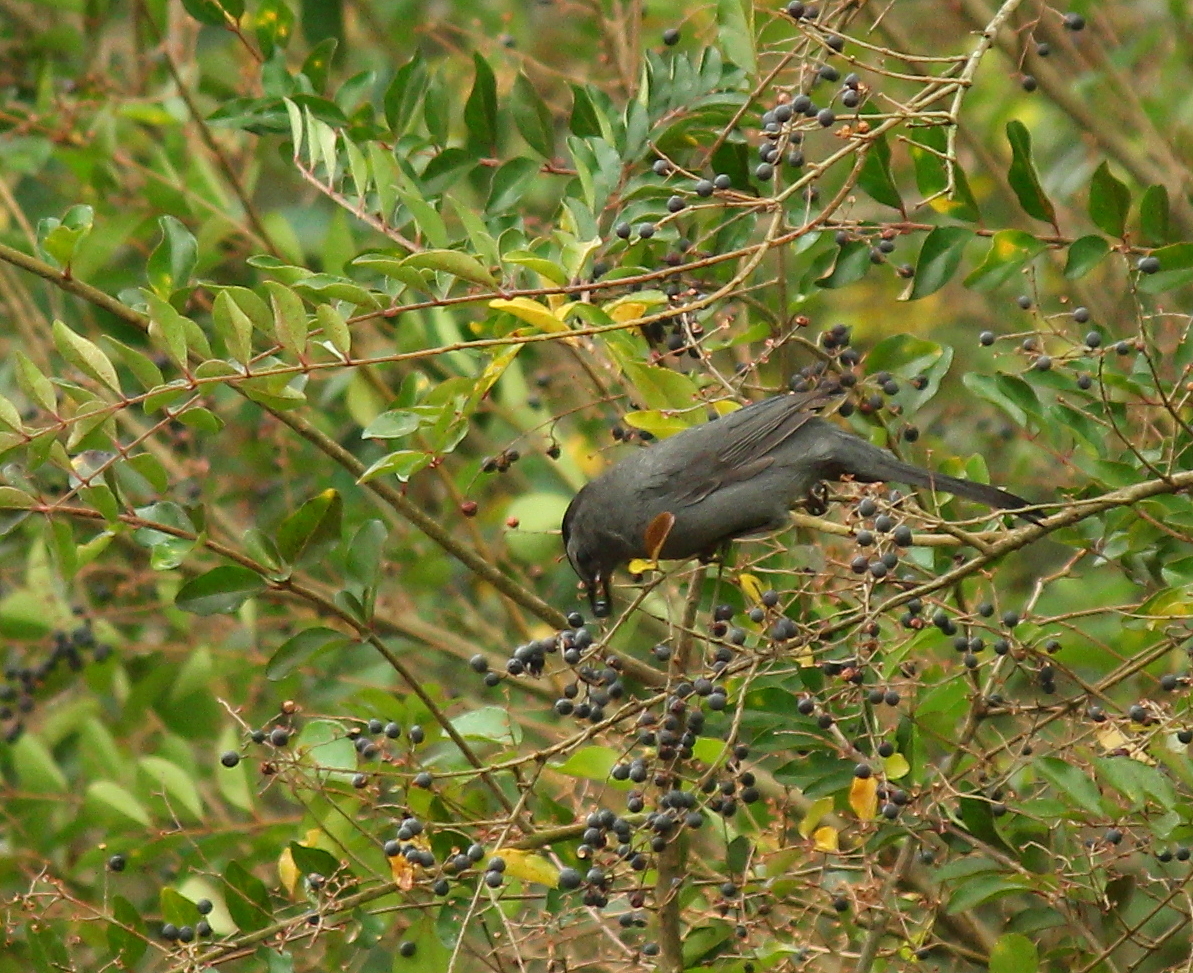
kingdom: Animalia
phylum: Chordata
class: Aves
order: Passeriformes
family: Mimidae
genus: Dumetella
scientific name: Dumetella carolinensis
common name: Gray catbird
